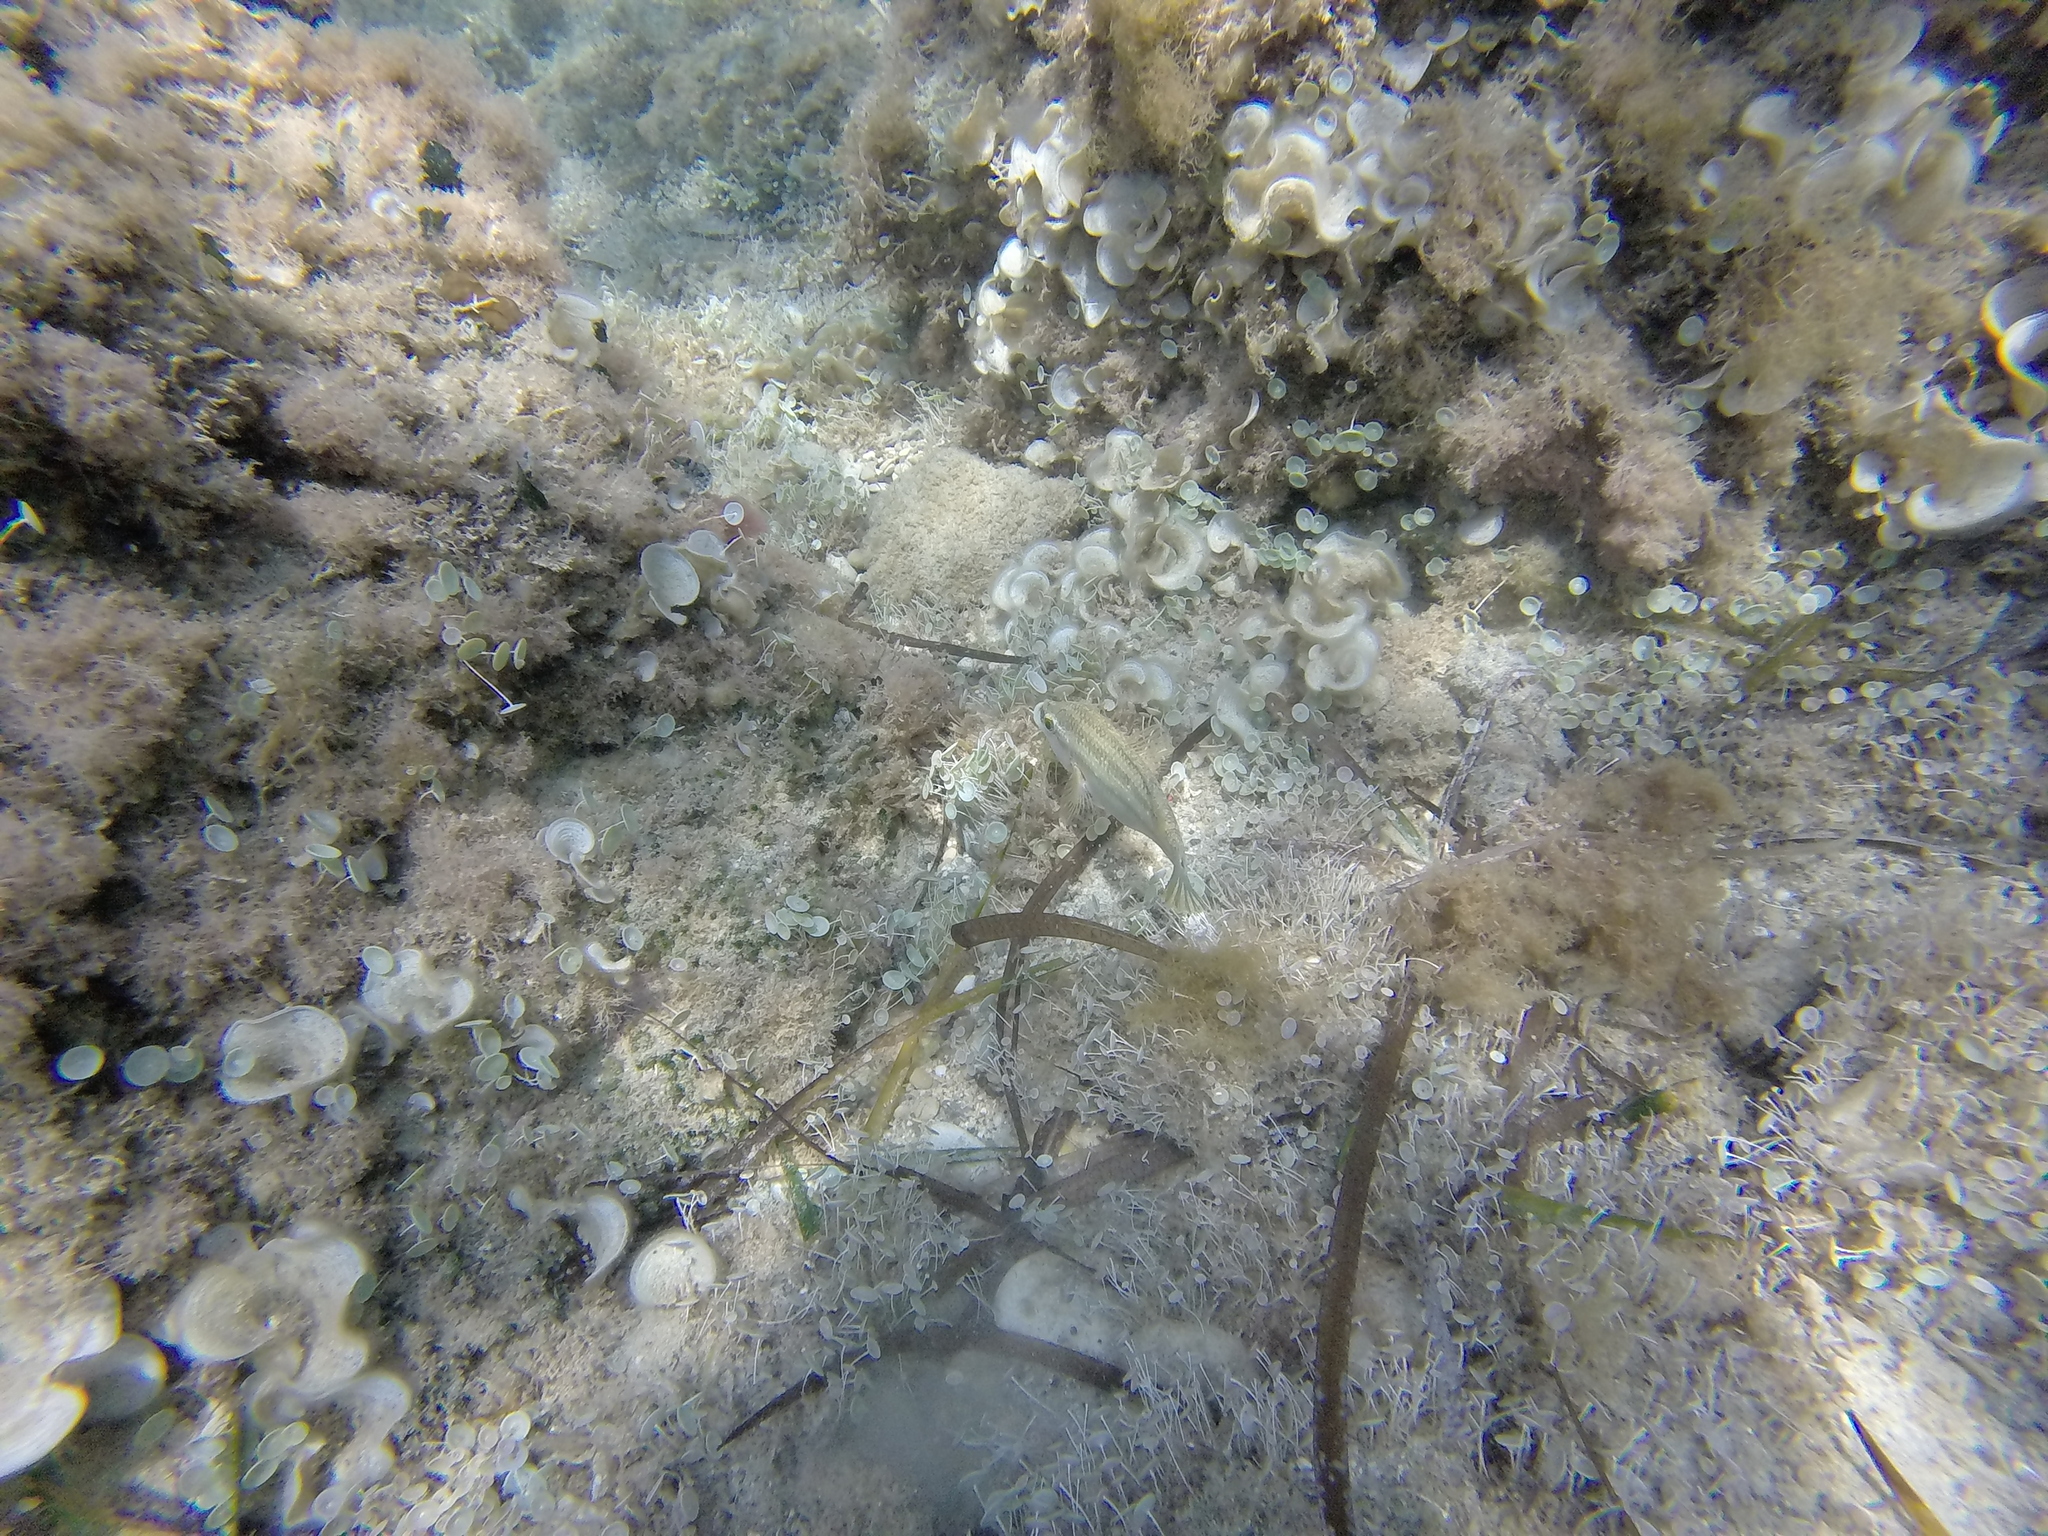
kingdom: Animalia
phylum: Chordata
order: Perciformes
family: Labridae
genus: Symphodus
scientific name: Symphodus tinca
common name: Peacock wrasse
